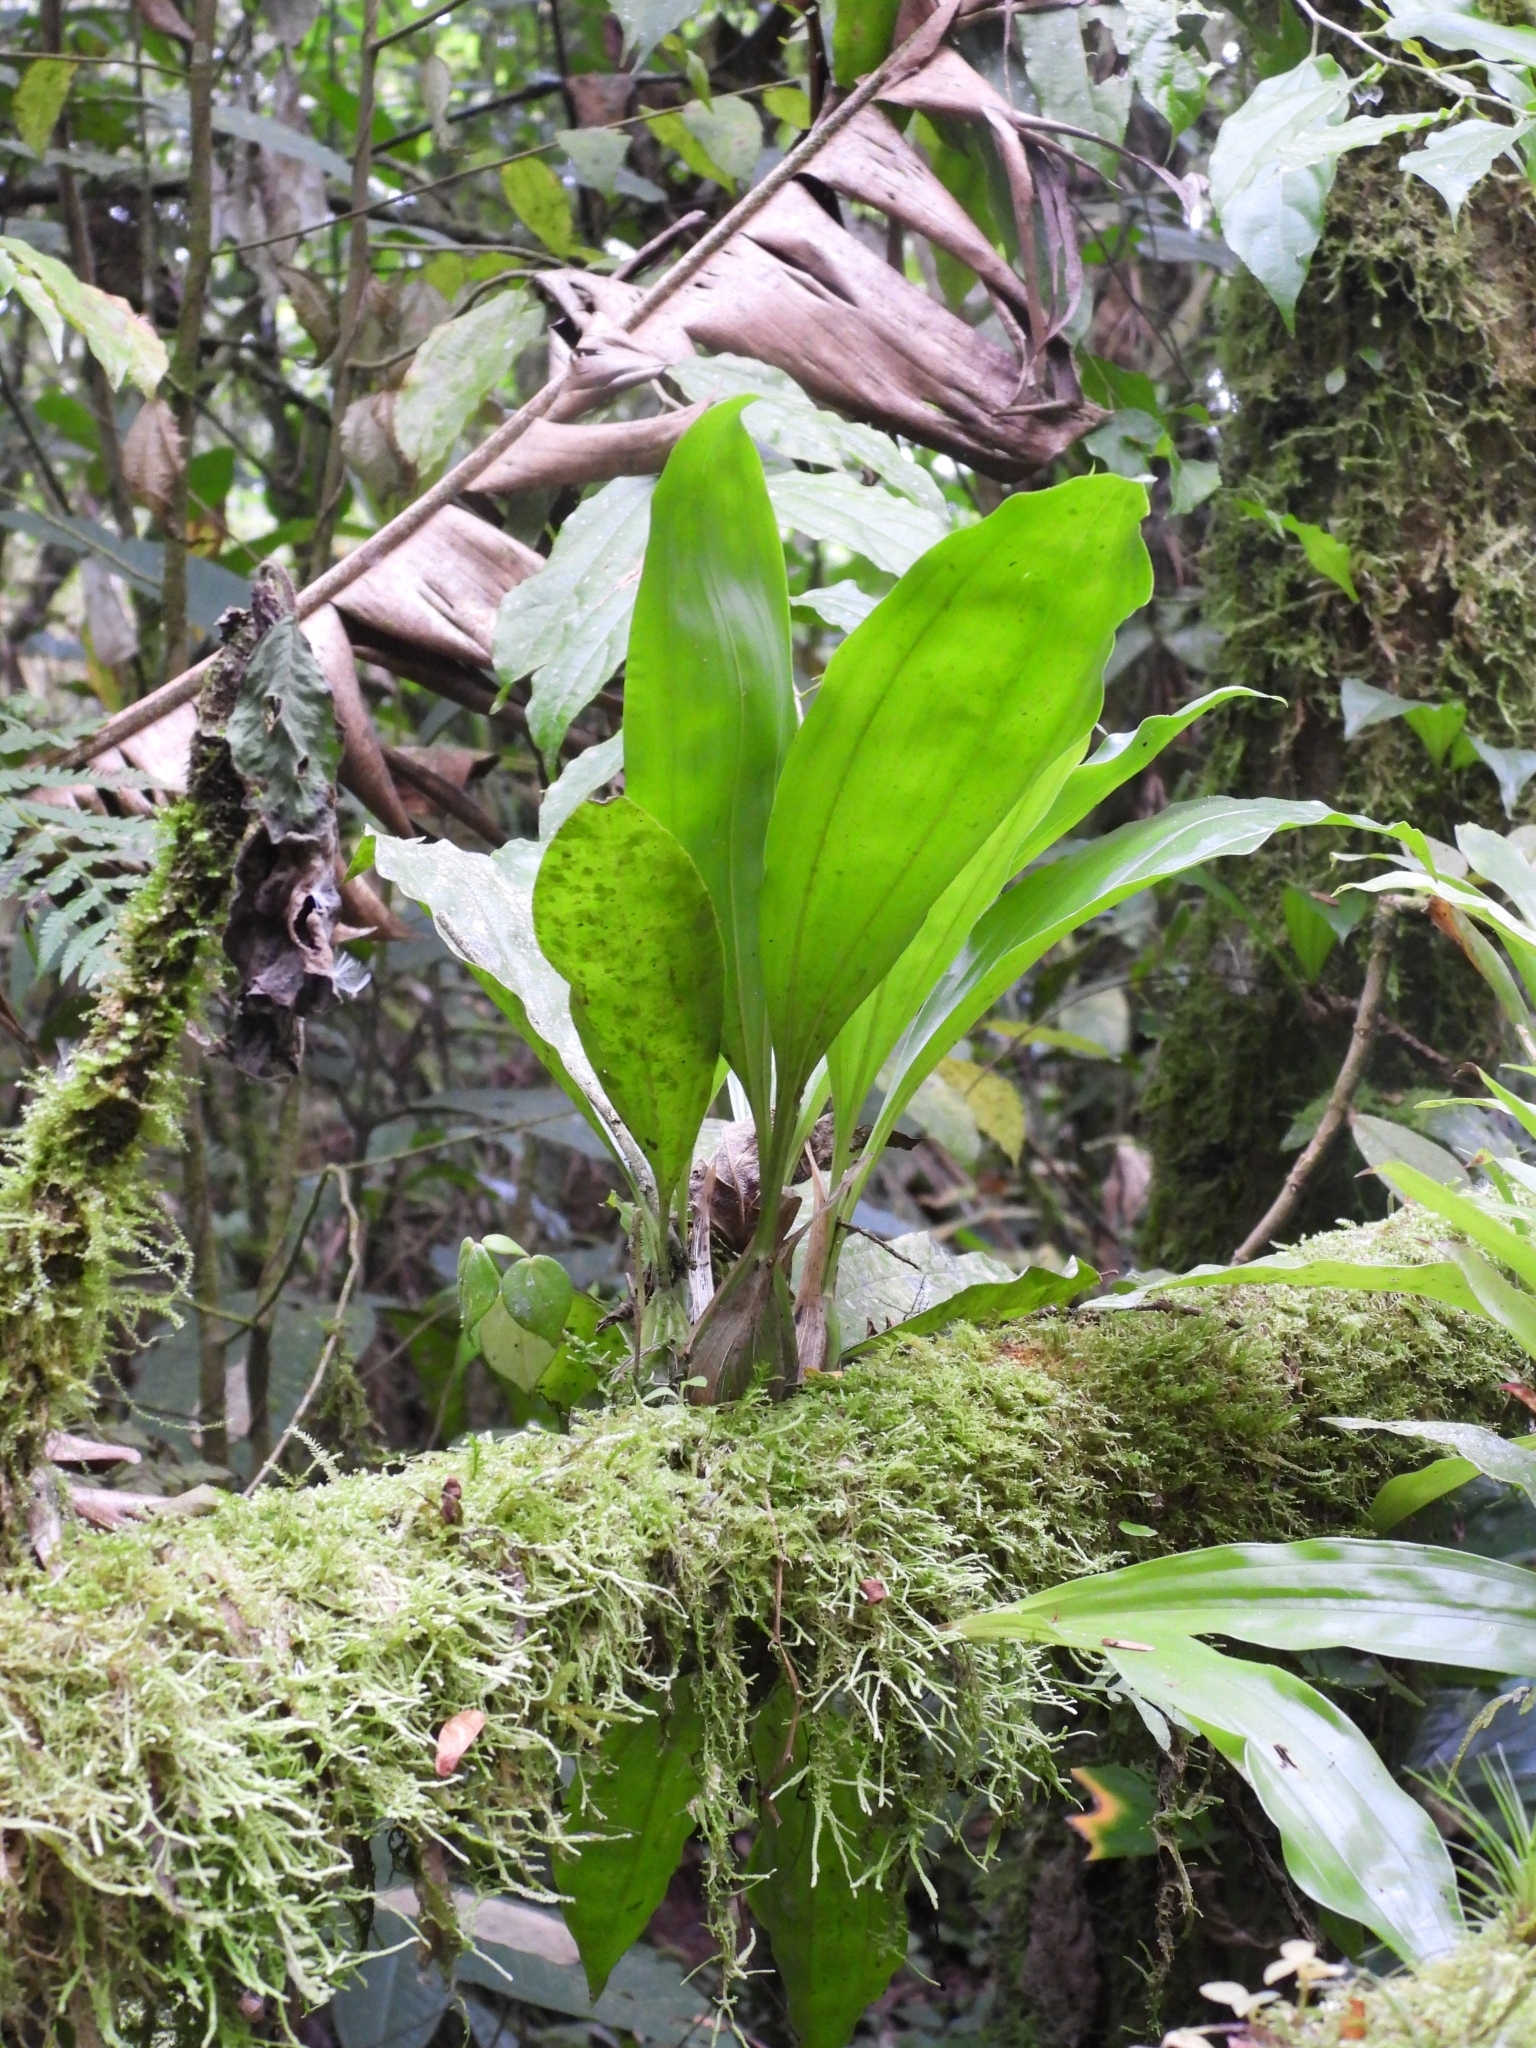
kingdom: Plantae
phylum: Tracheophyta
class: Liliopsida
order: Asparagales
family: Orchidaceae
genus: Gongora
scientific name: Gongora galeata
